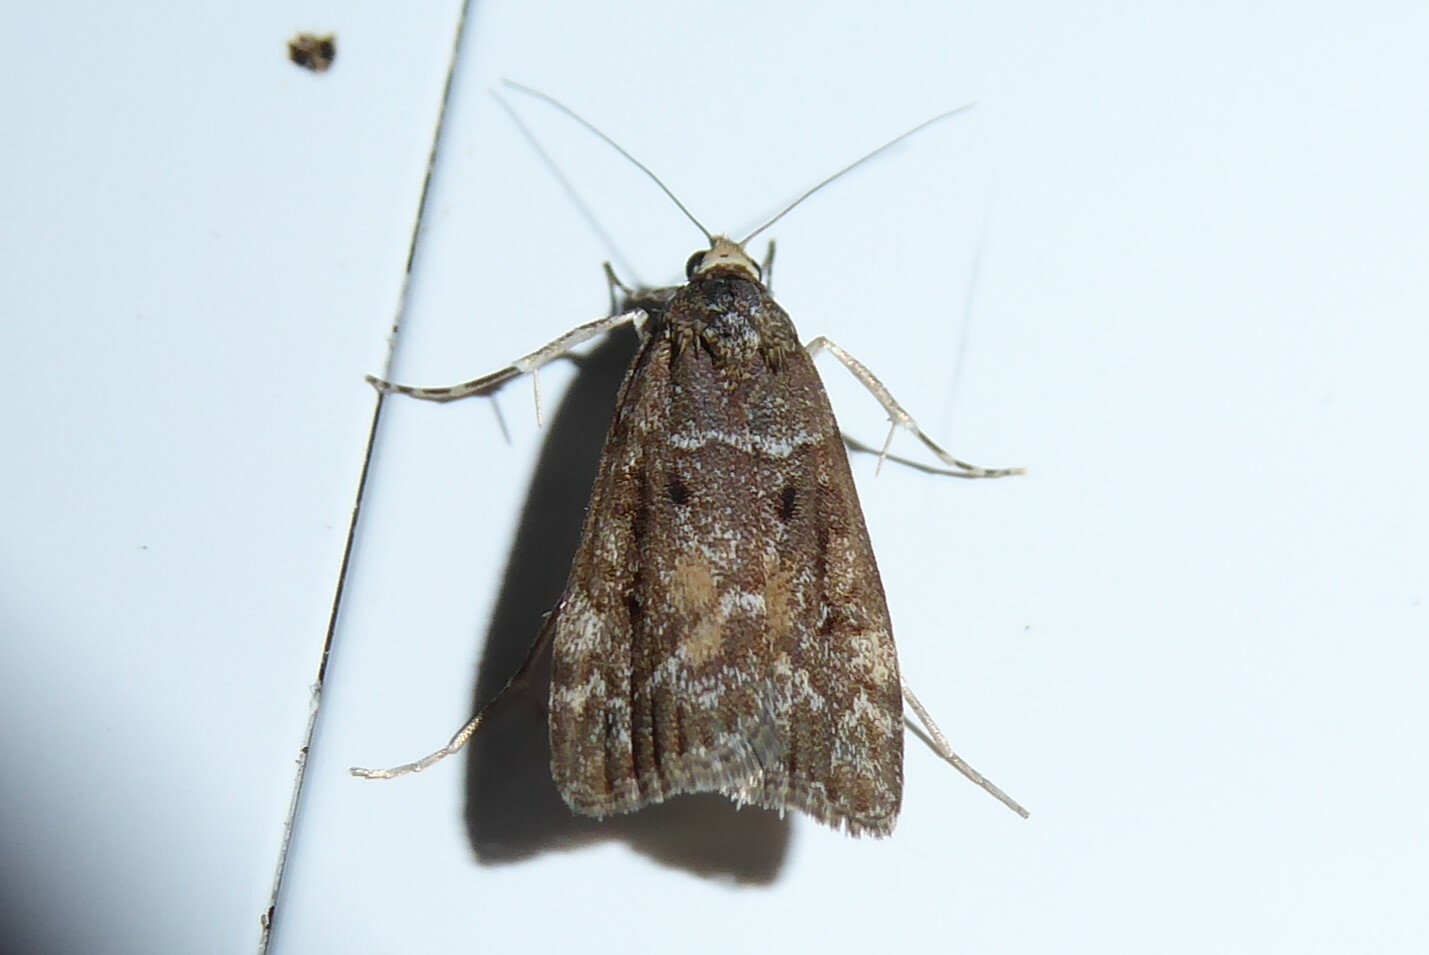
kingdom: Animalia
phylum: Arthropoda
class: Insecta
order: Lepidoptera
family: Crambidae
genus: Eudonia
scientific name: Eudonia submarginalis
